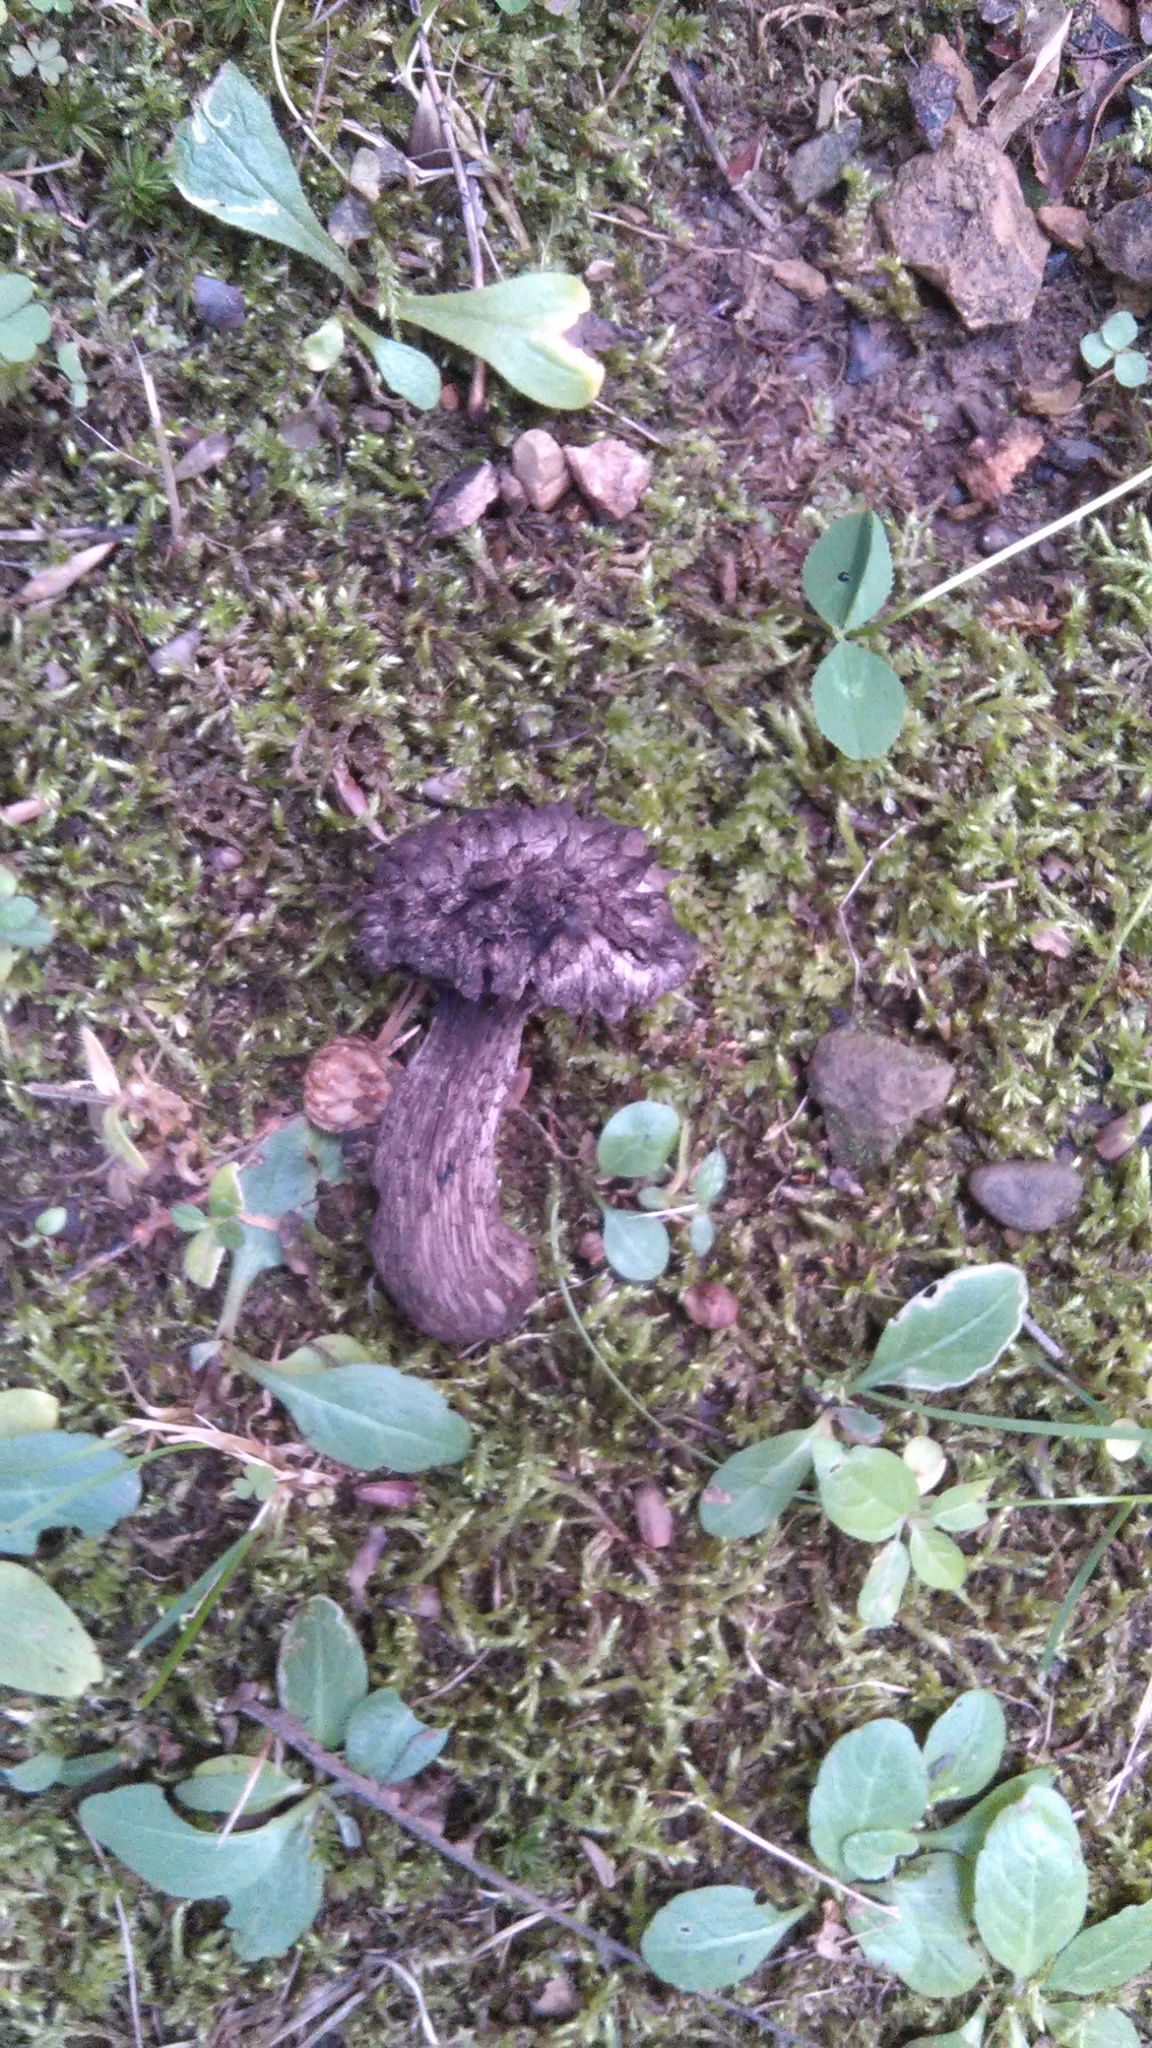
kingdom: Fungi
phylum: Basidiomycota
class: Agaricomycetes
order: Boletales
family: Boletaceae
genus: Strobilomyces
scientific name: Strobilomyces strobilaceus
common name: Old man of the woods
